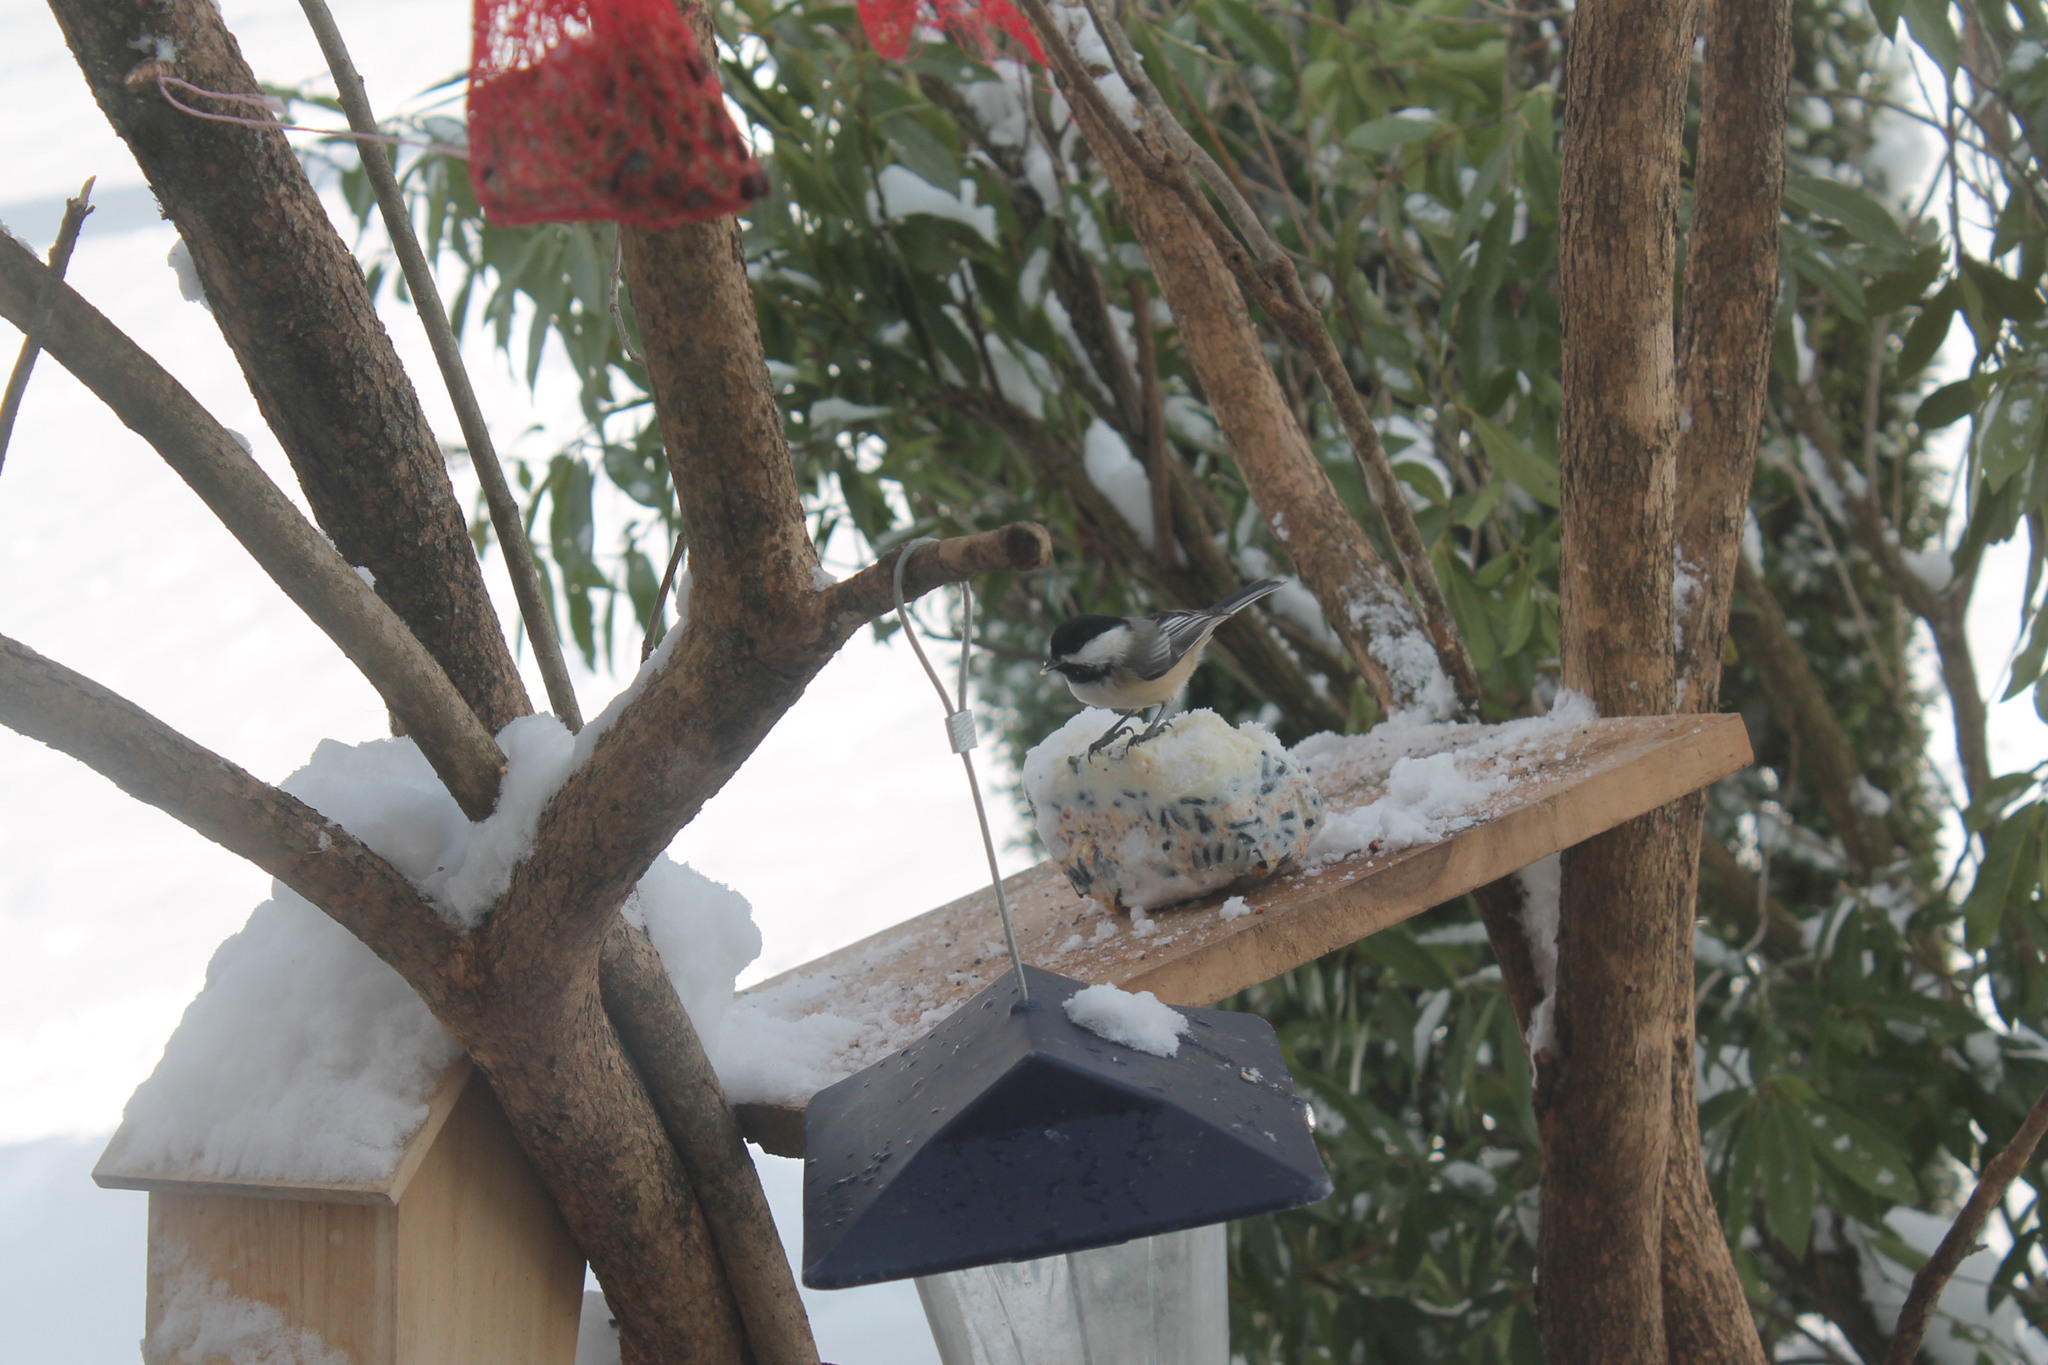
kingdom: Animalia
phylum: Chordata
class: Aves
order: Passeriformes
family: Paridae
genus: Poecile
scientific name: Poecile atricapillus
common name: Black-capped chickadee
